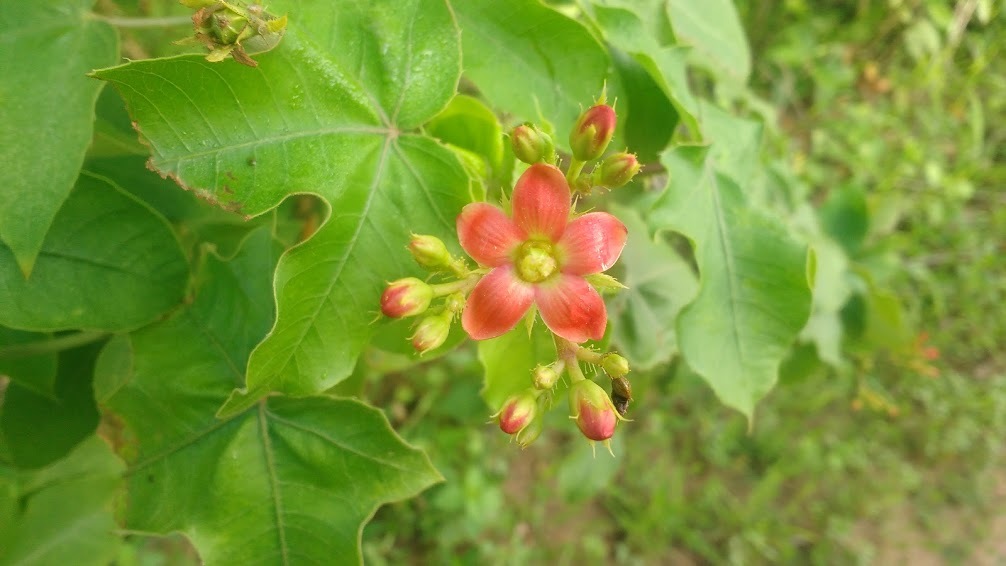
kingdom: Plantae
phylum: Tracheophyta
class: Magnoliopsida
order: Malpighiales
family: Euphorbiaceae
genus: Jatropha
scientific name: Jatropha mollissima
